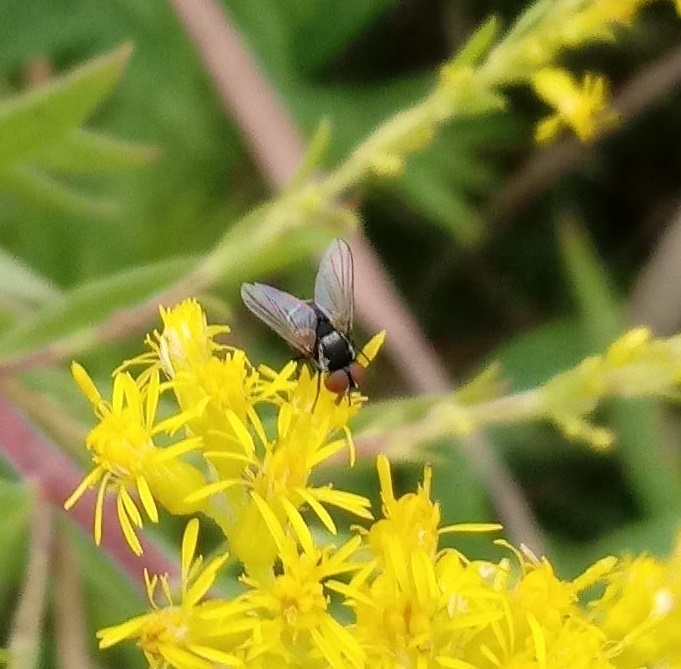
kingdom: Animalia
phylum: Arthropoda
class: Insecta
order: Diptera
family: Tachinidae
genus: Strongygaster
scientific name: Strongygaster triangulifera
